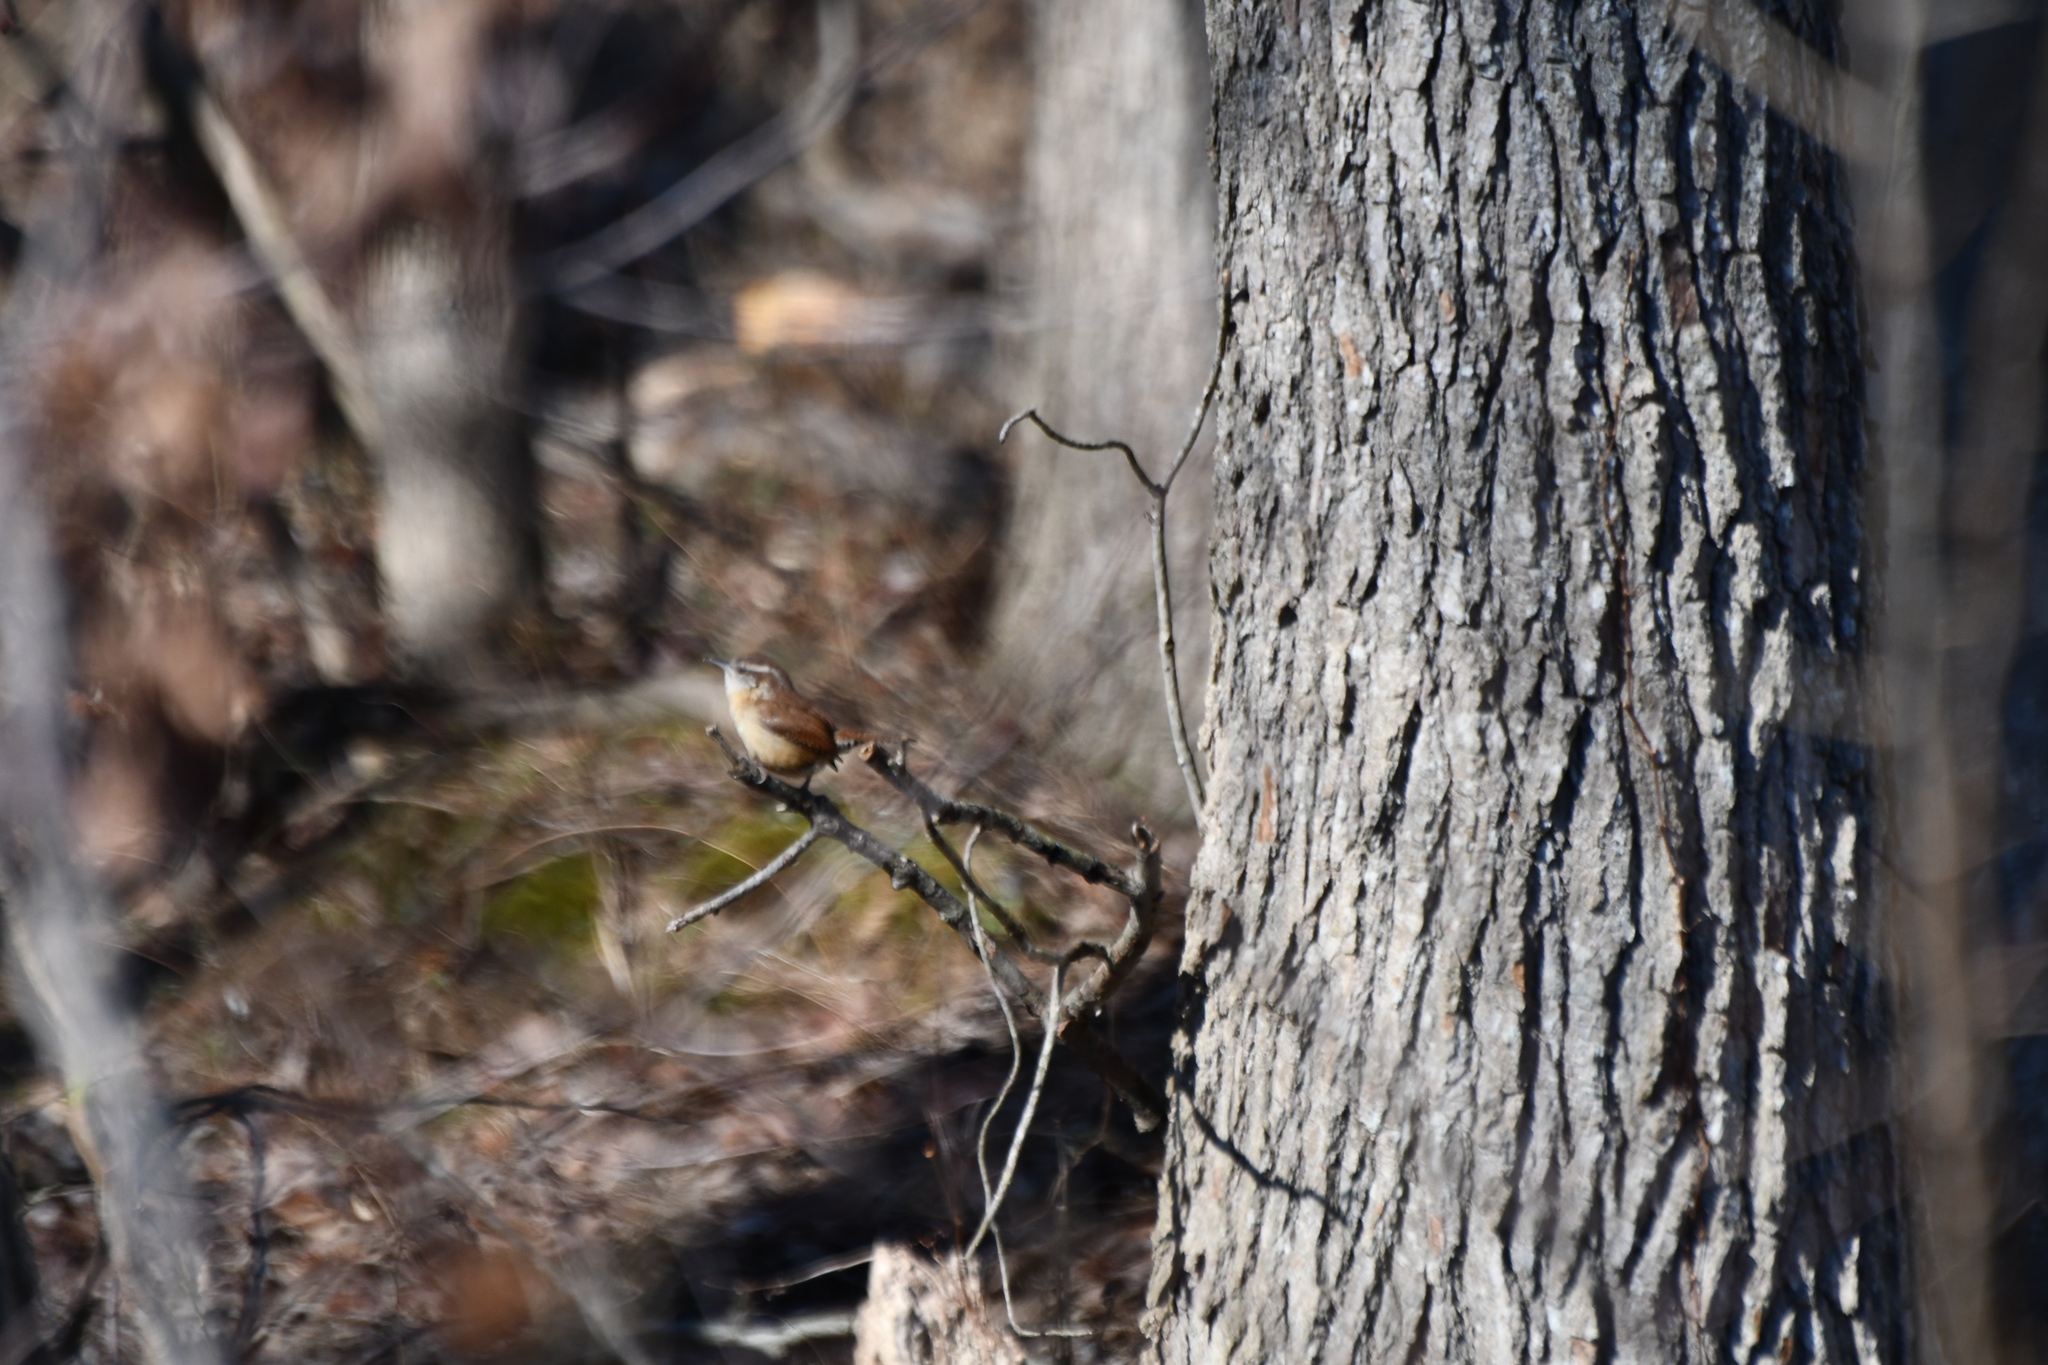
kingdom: Animalia
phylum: Chordata
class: Aves
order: Passeriformes
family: Troglodytidae
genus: Thryothorus
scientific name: Thryothorus ludovicianus
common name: Carolina wren
